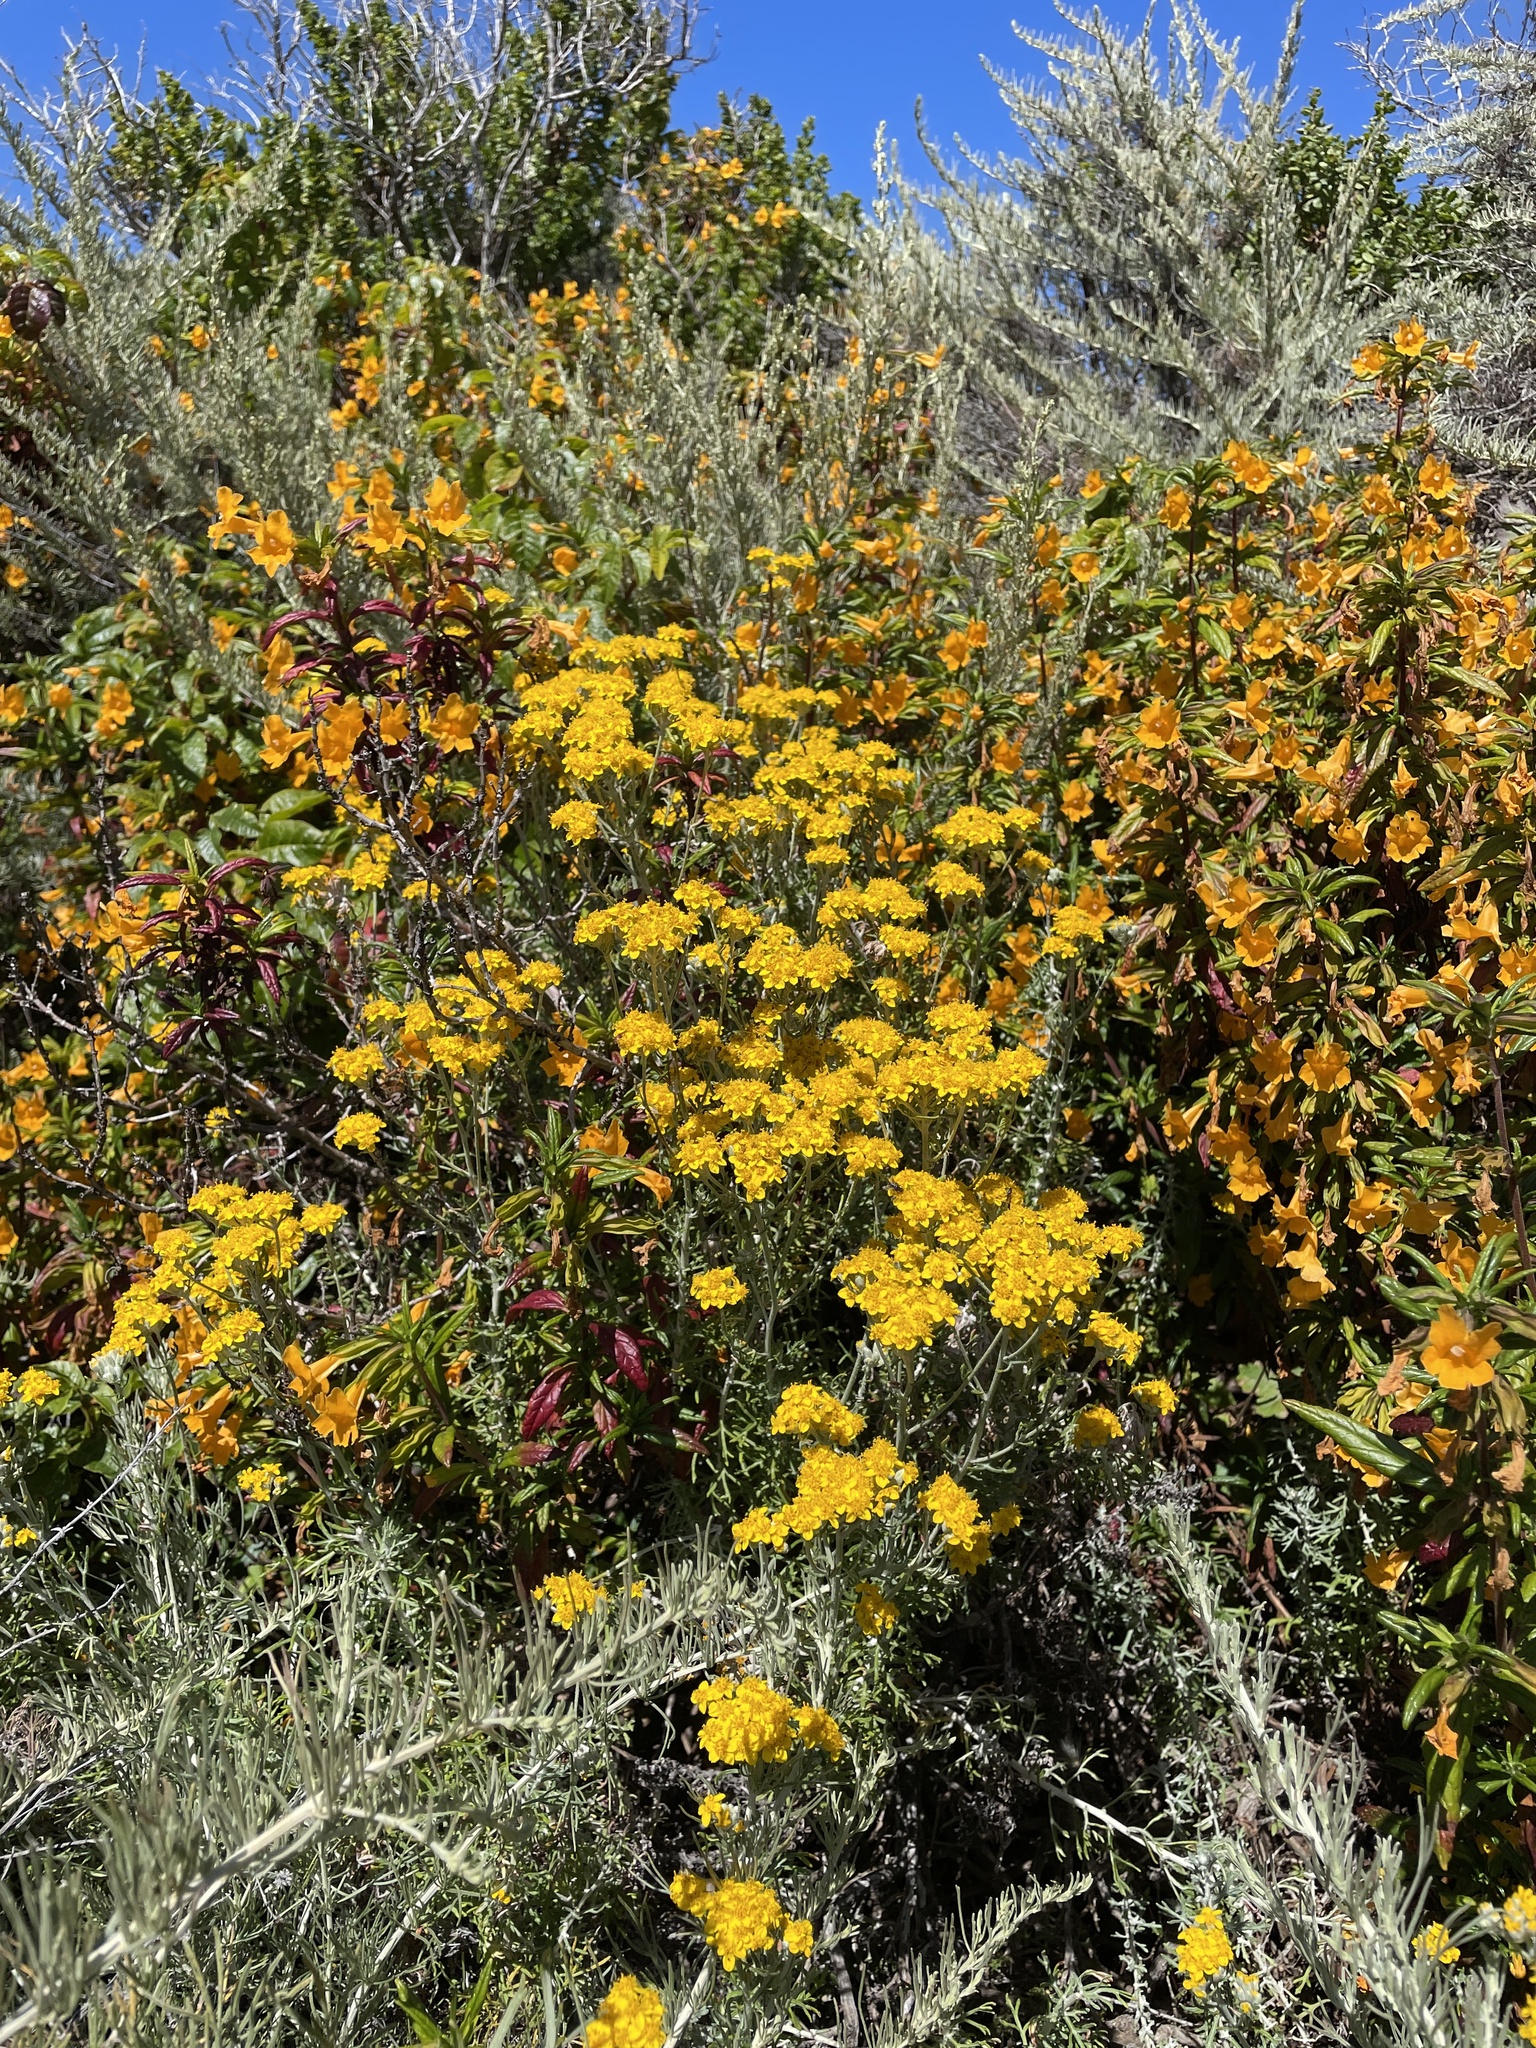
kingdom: Plantae
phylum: Tracheophyta
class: Magnoliopsida
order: Asterales
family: Asteraceae
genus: Eriophyllum
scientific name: Eriophyllum confertiflorum
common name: Golden-yarrow
